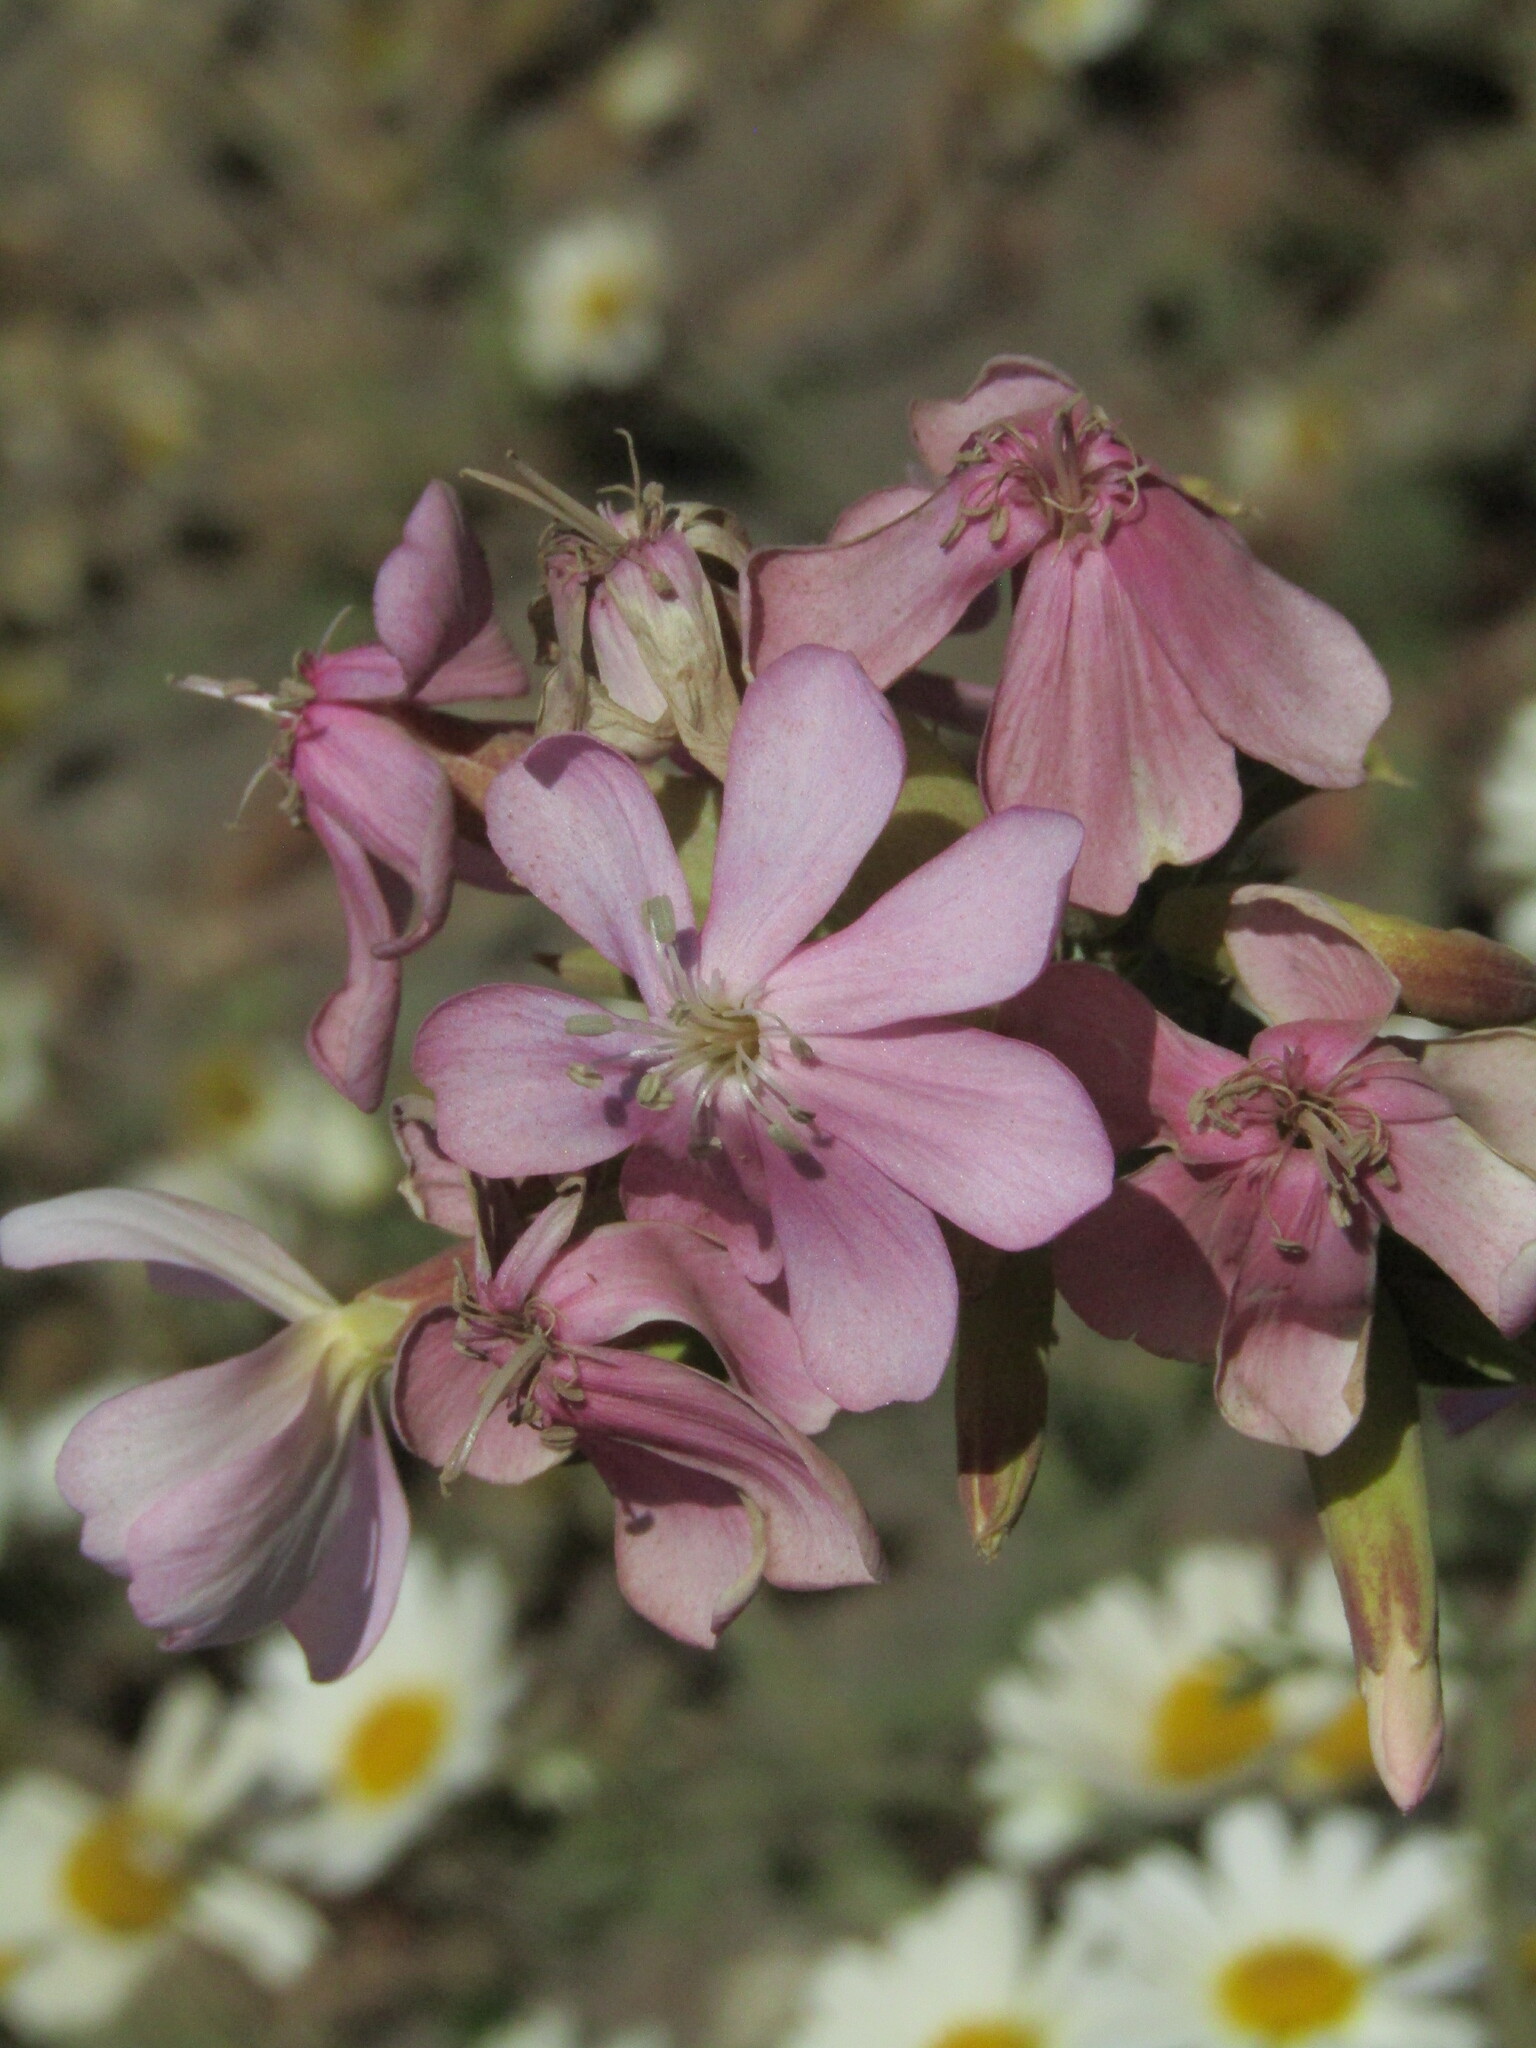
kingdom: Plantae
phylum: Tracheophyta
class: Magnoliopsida
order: Caryophyllales
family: Caryophyllaceae
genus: Saponaria
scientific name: Saponaria officinalis
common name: Soapwort
